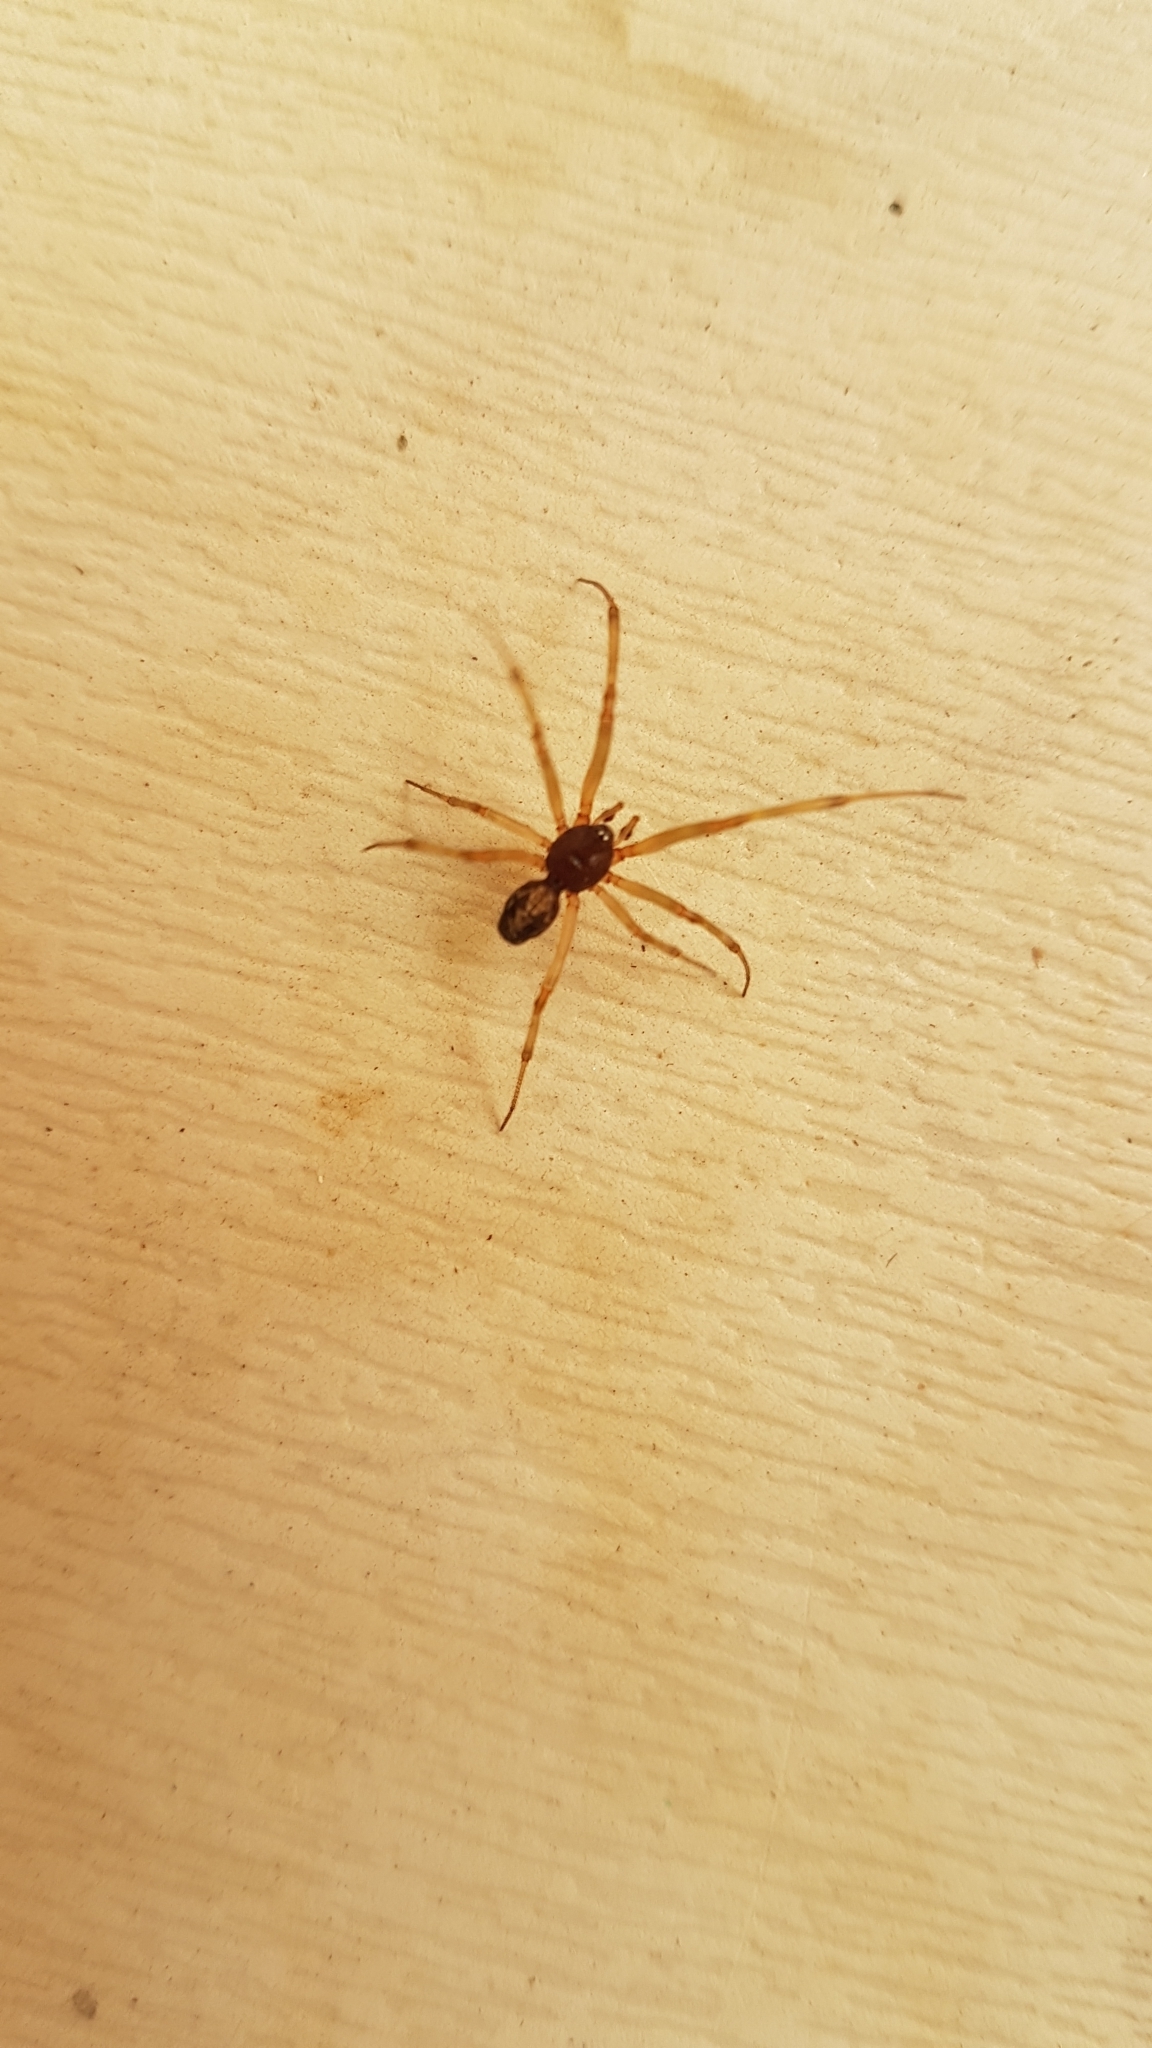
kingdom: Animalia
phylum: Arthropoda
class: Arachnida
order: Araneae
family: Theridiidae
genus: Steatoda
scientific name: Steatoda triangulosa
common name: Triangulate bud spider
